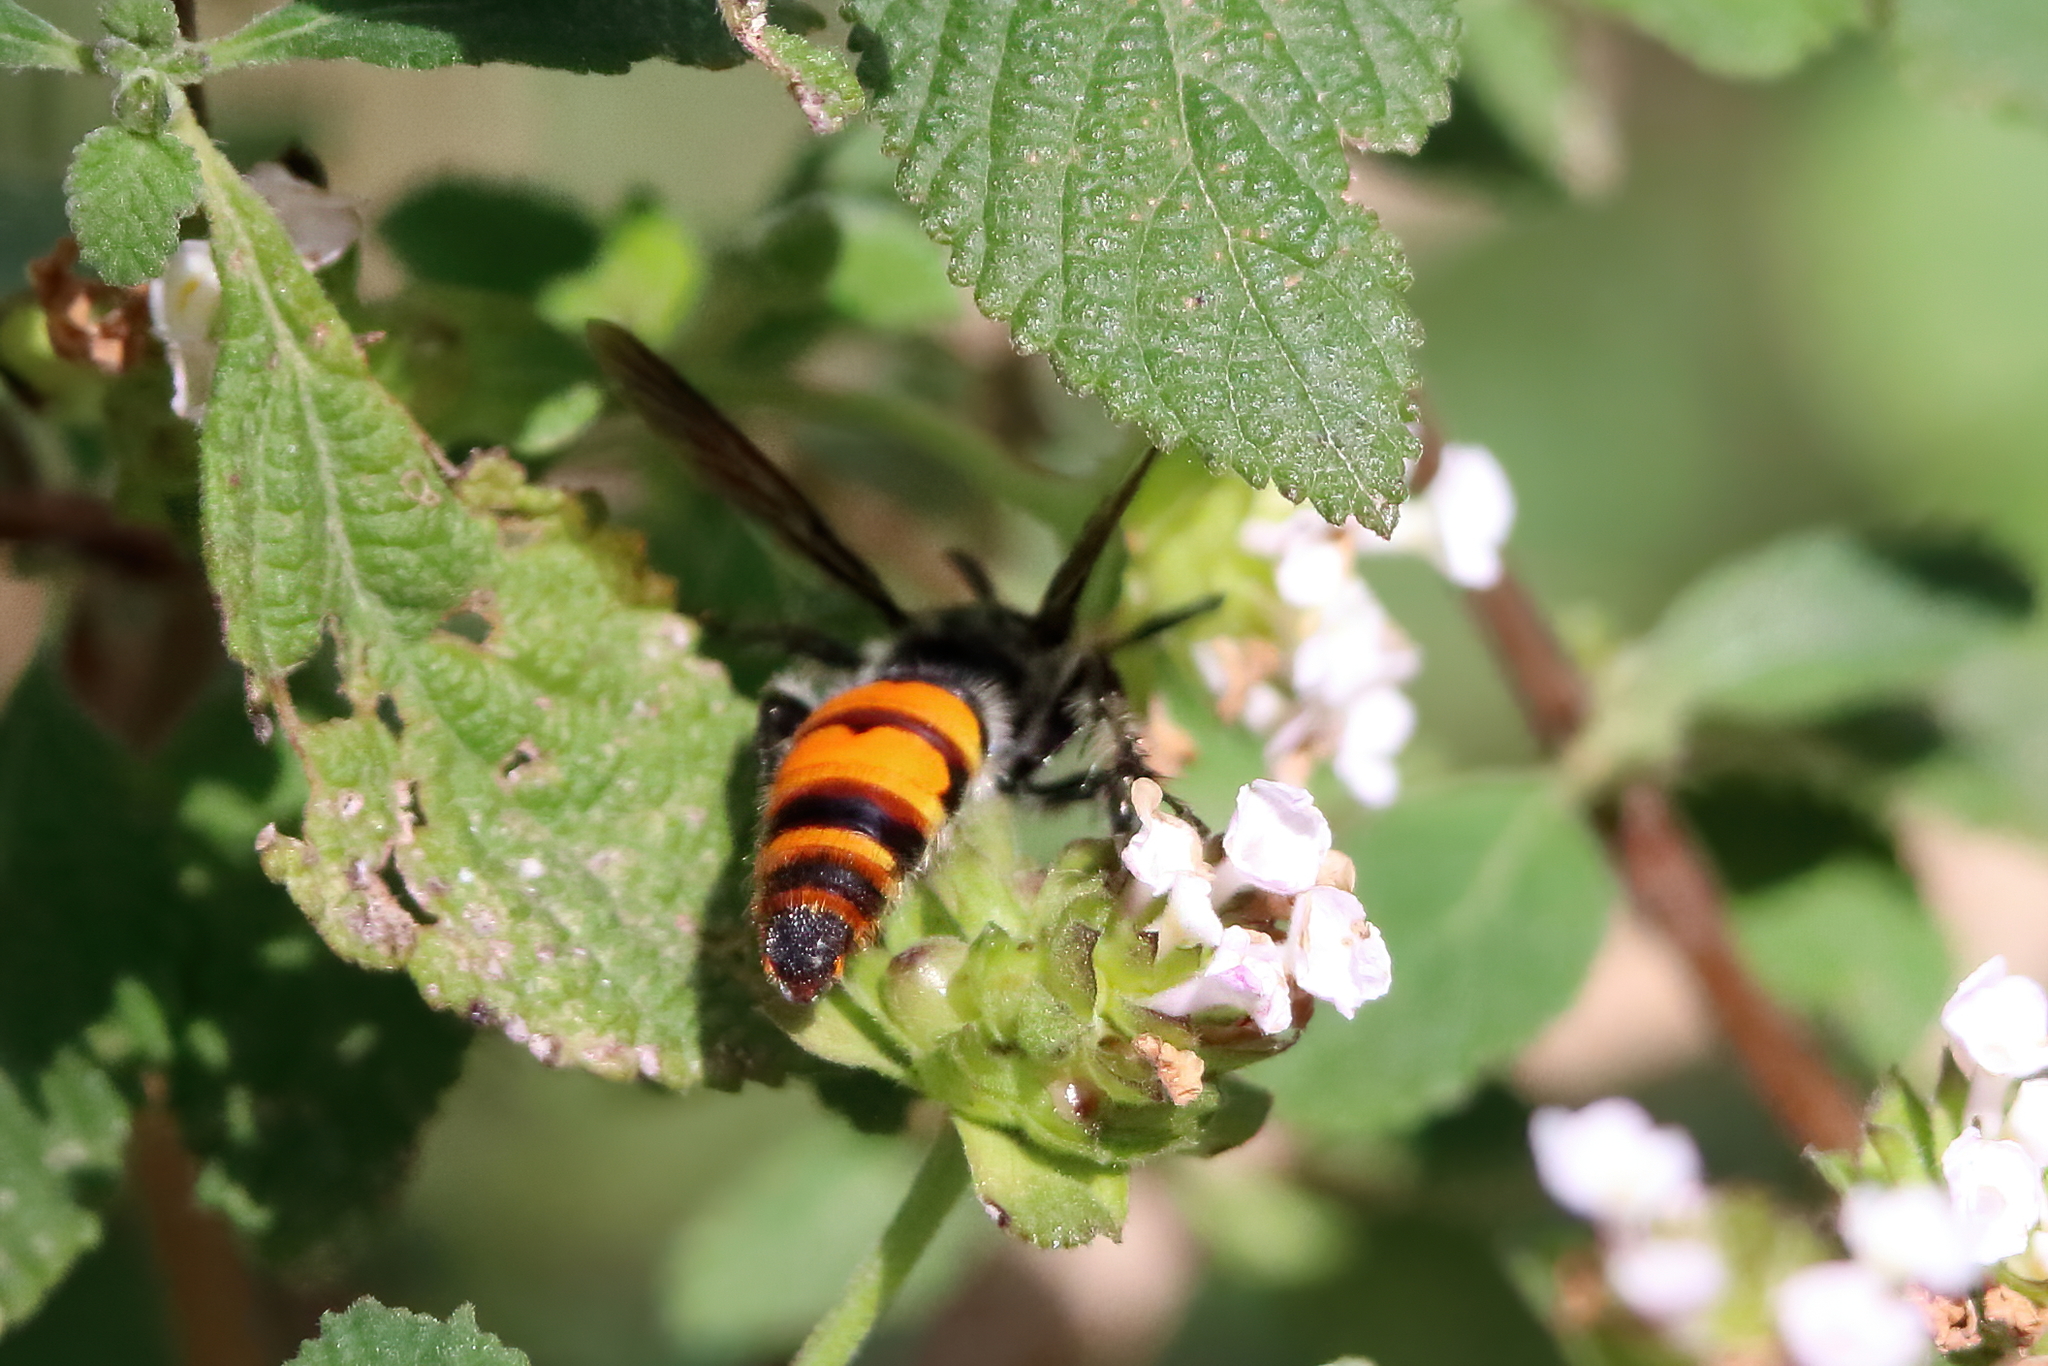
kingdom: Animalia
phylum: Arthropoda
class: Insecta
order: Hymenoptera
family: Scoliidae
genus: Dielis
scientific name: Dielis tolteca
